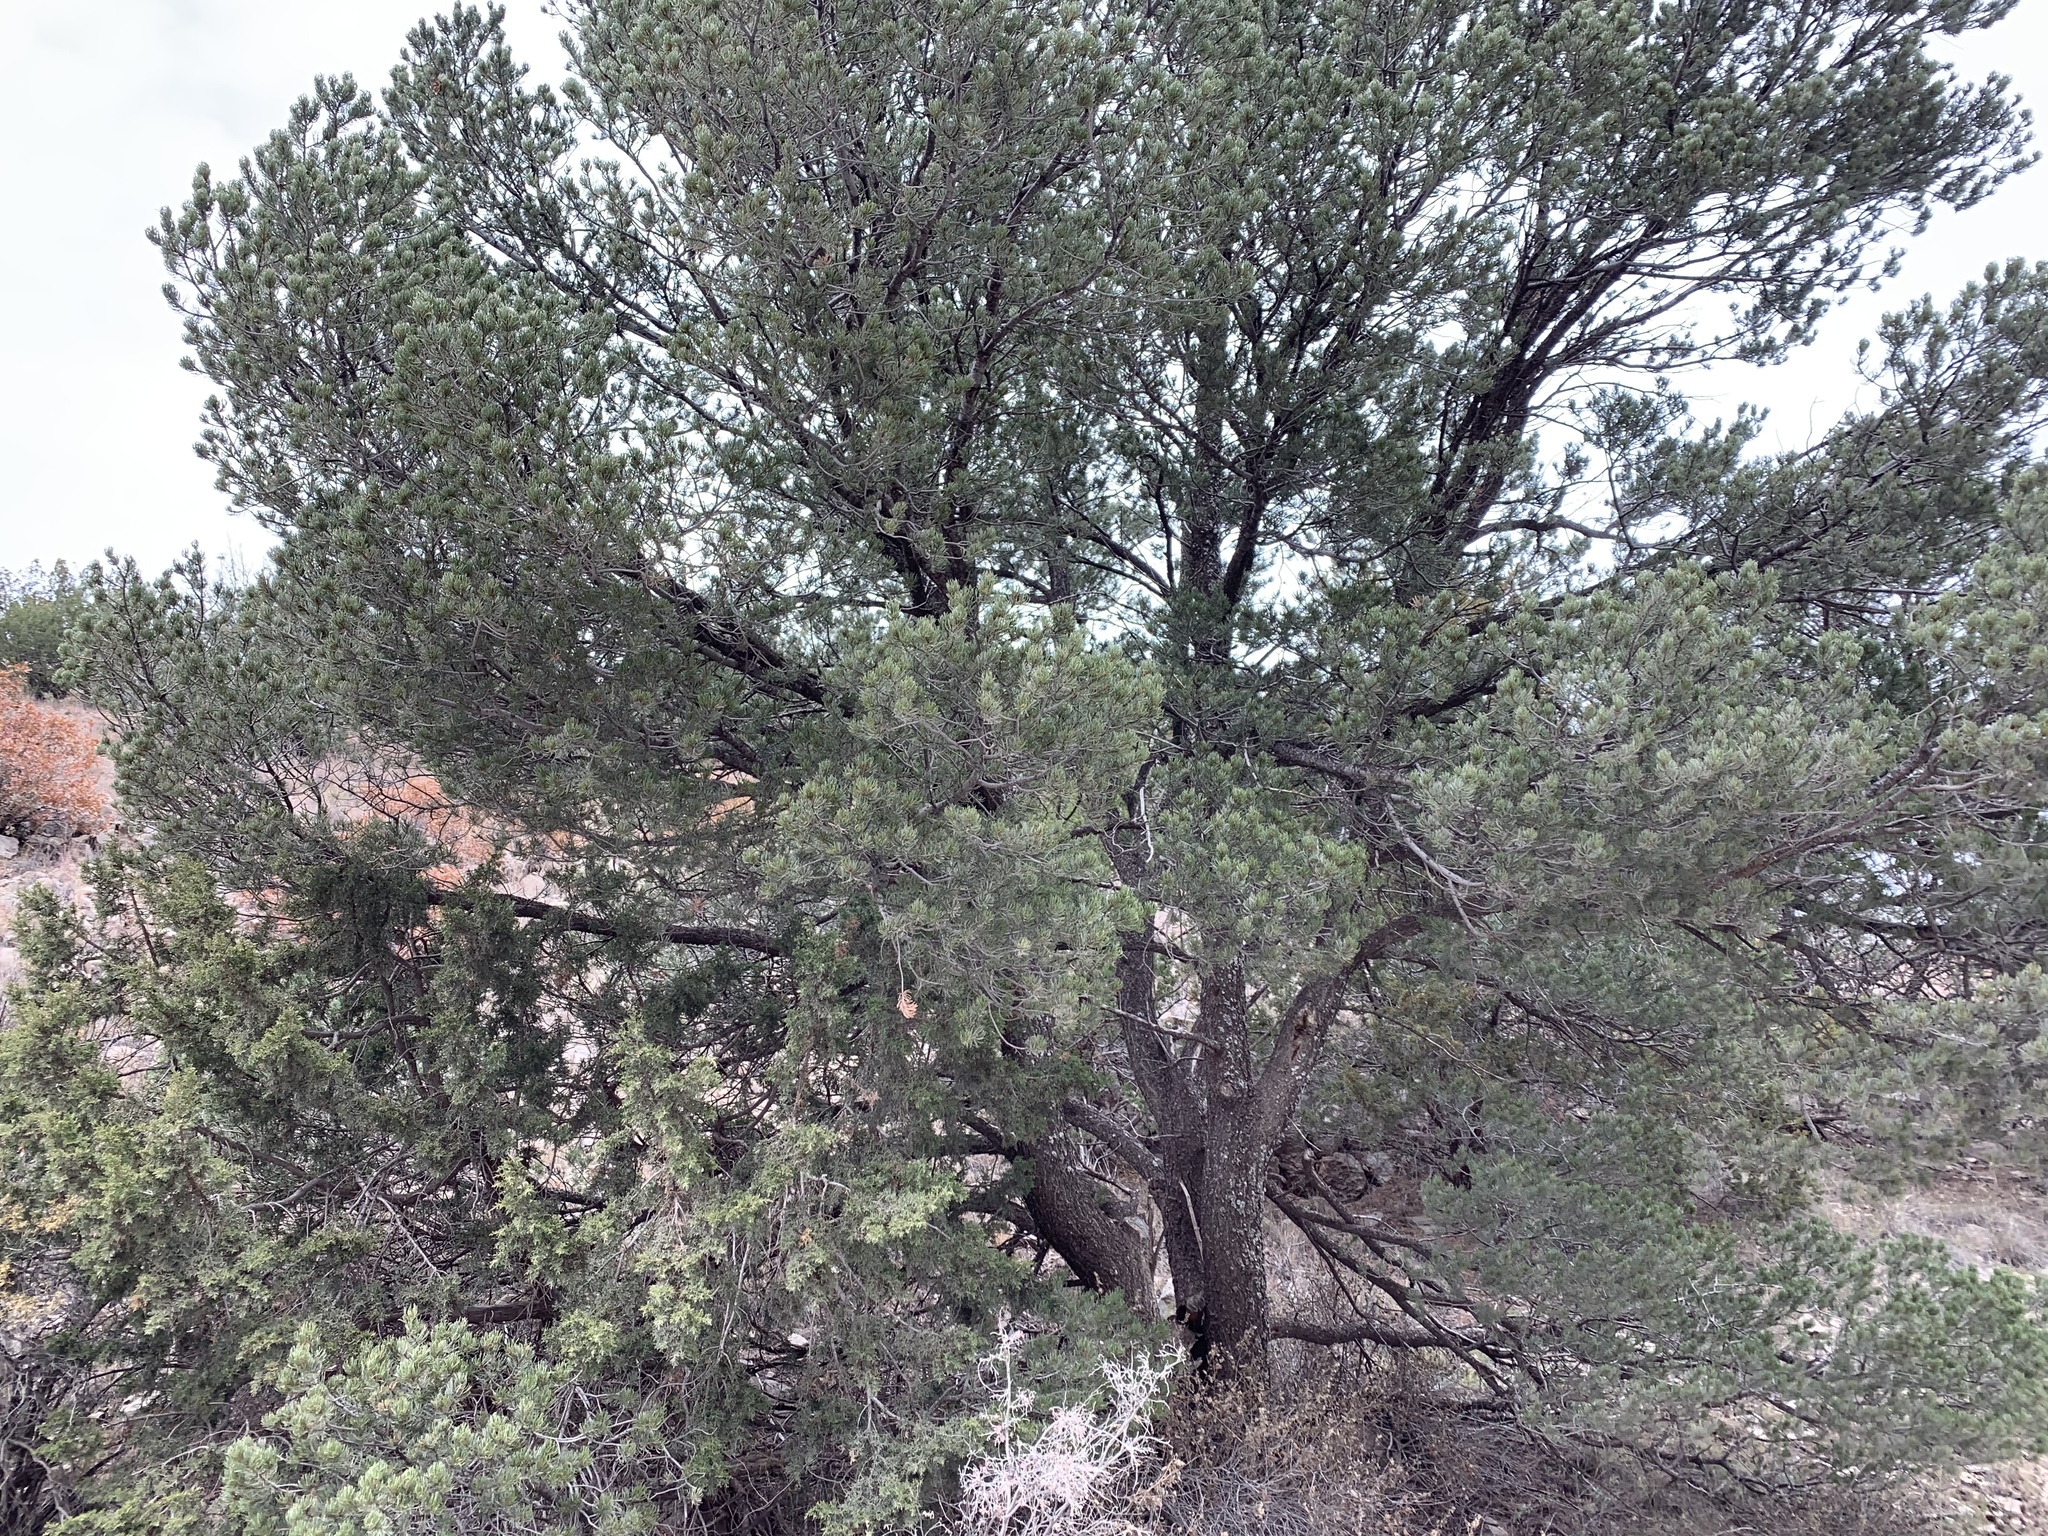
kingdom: Plantae
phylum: Tracheophyta
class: Pinopsida
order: Pinales
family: Pinaceae
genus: Pinus
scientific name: Pinus edulis
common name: Colorado pinyon
